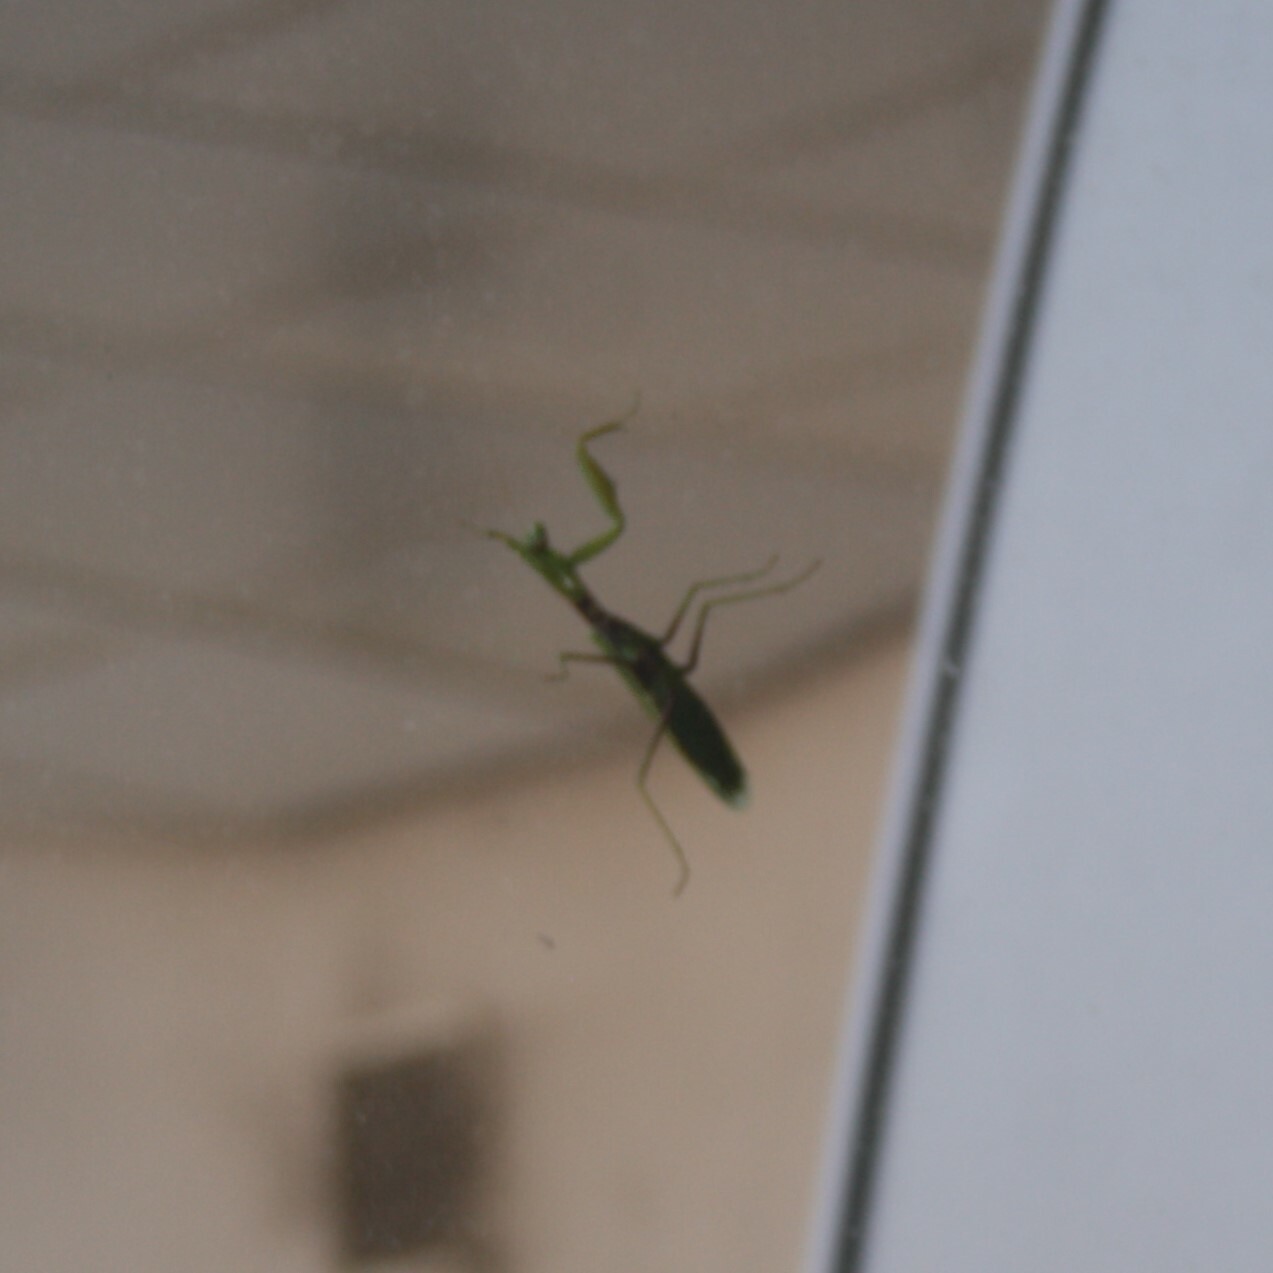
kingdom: Animalia
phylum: Arthropoda
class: Insecta
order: Mantodea
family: Mantidae
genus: Hierodula
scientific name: Hierodula transcaucasica
